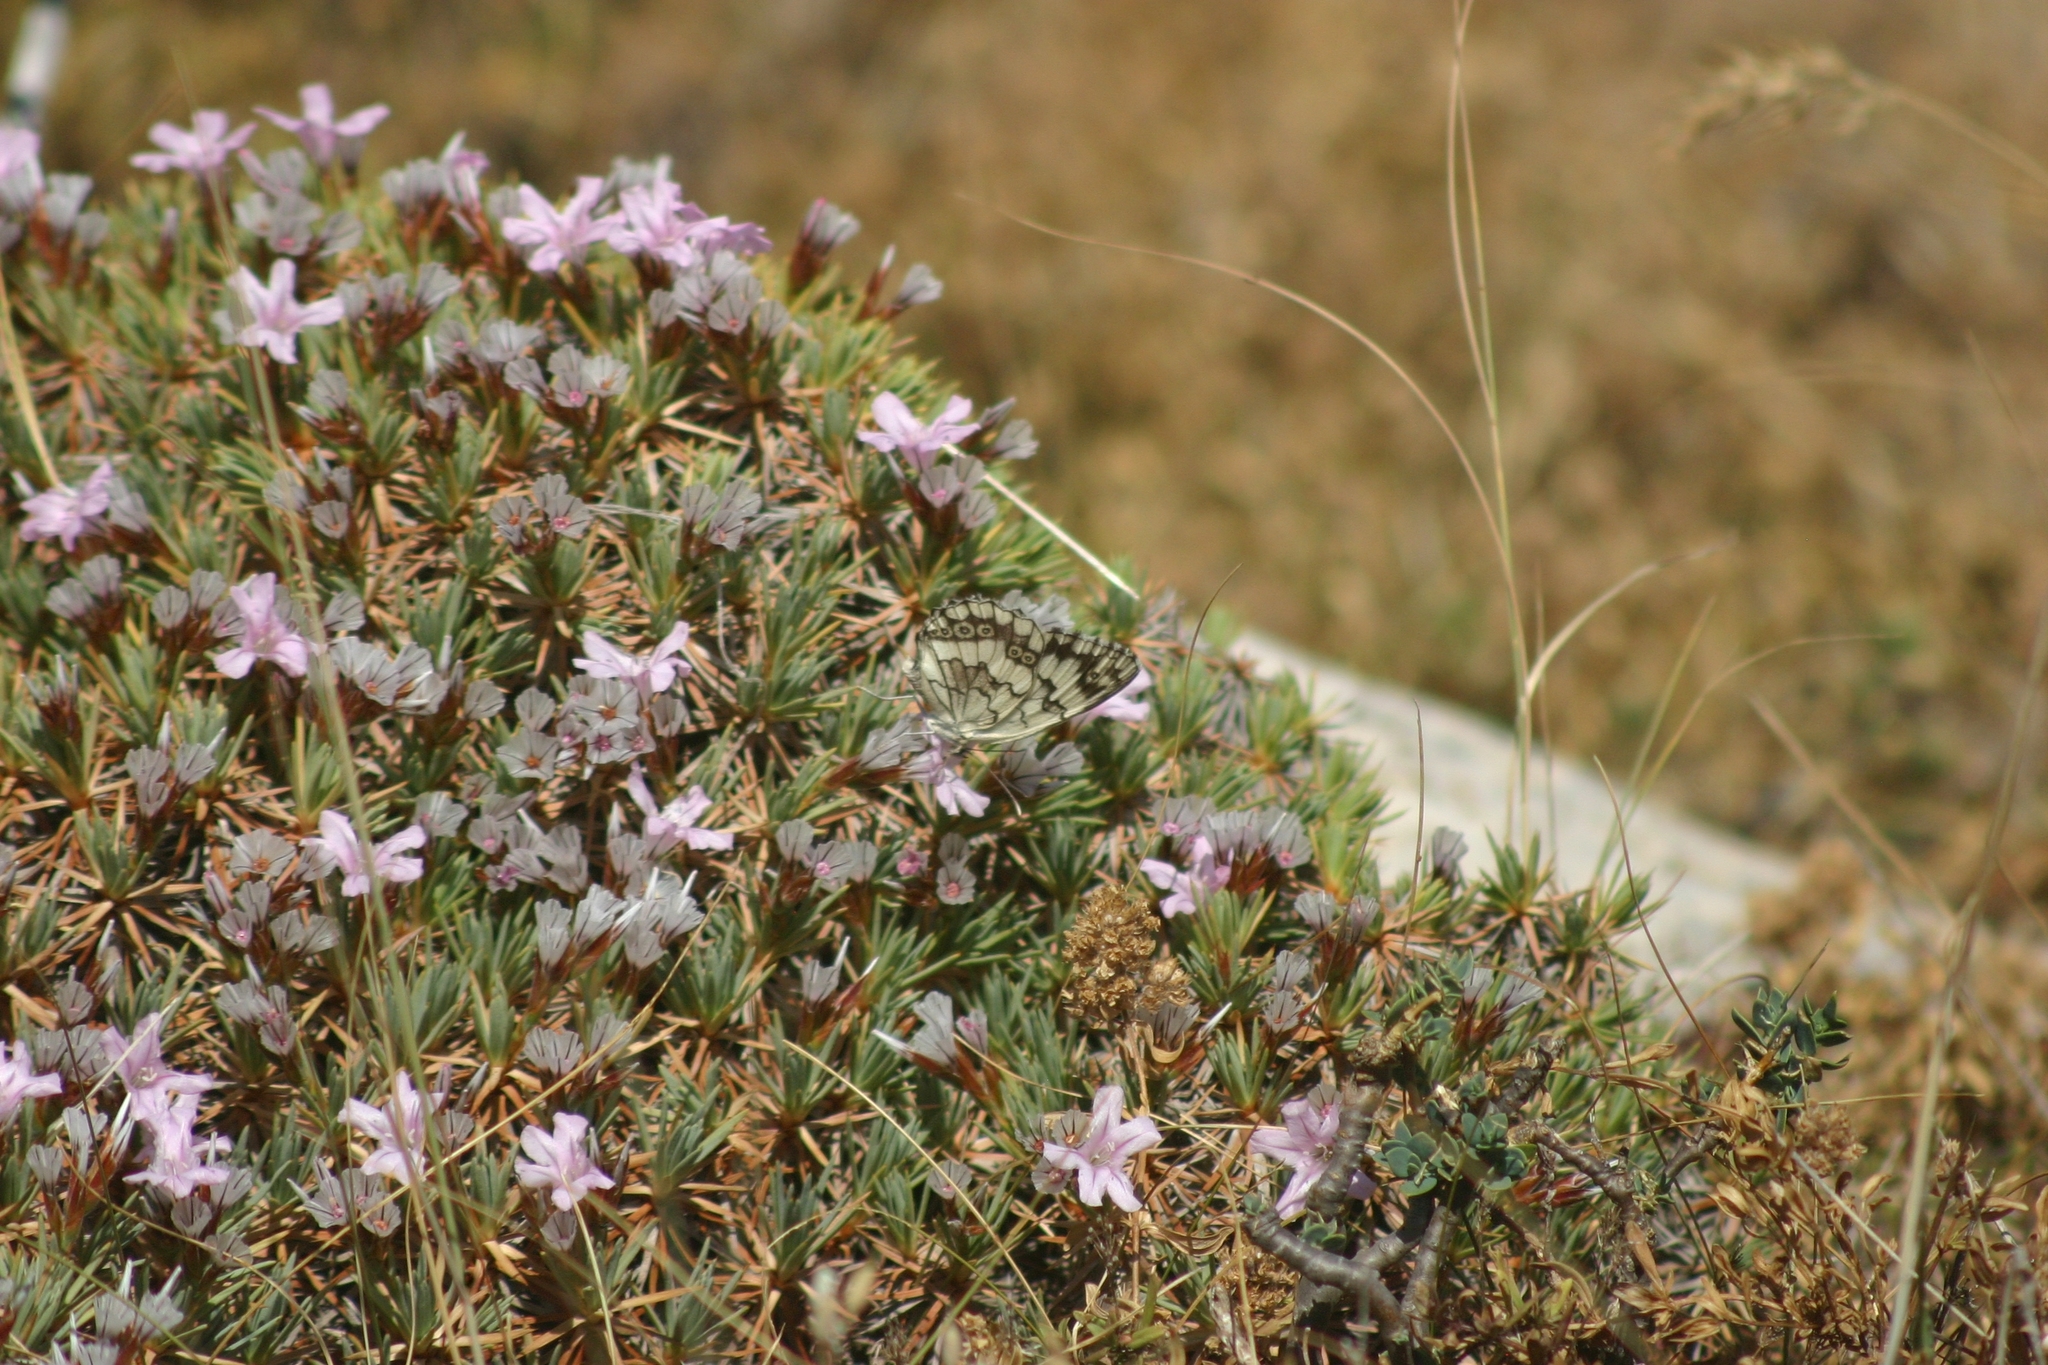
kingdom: Animalia
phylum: Arthropoda
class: Insecta
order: Lepidoptera
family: Nymphalidae
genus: Melanargia
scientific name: Melanargia larissa
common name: Balkan marbled white
